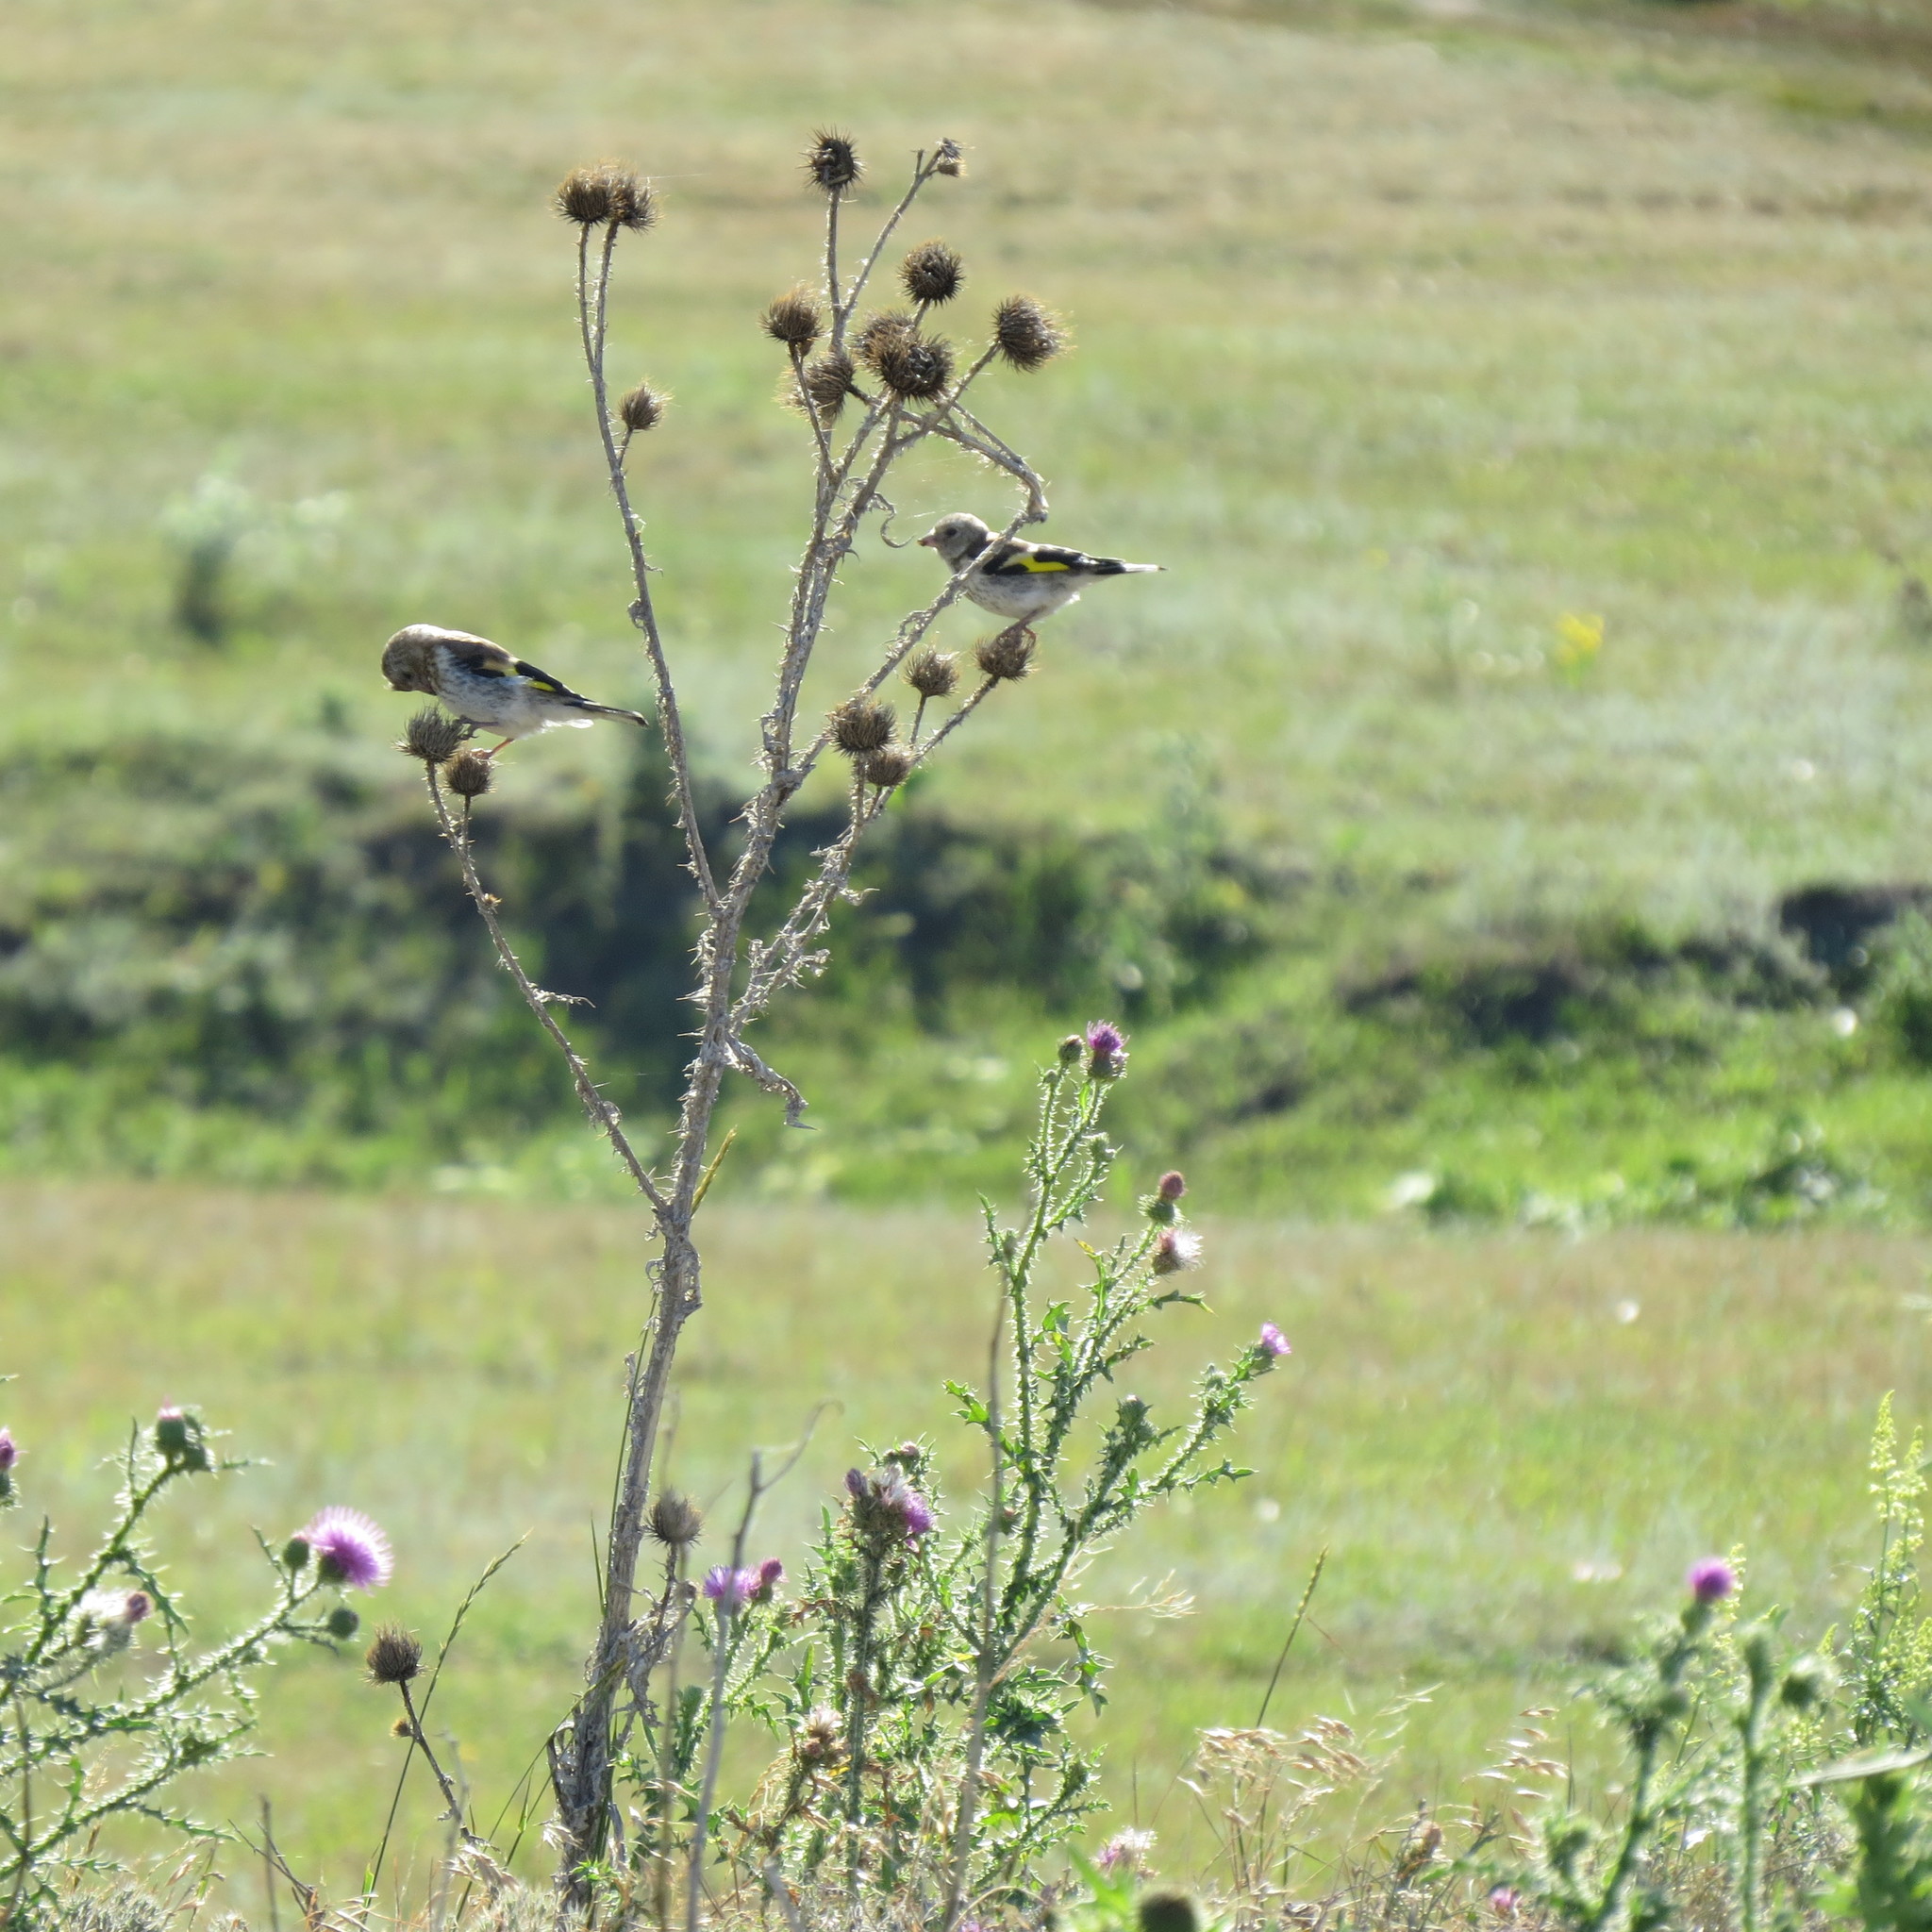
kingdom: Animalia
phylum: Chordata
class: Aves
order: Passeriformes
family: Fringillidae
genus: Carduelis
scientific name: Carduelis carduelis
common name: European goldfinch
